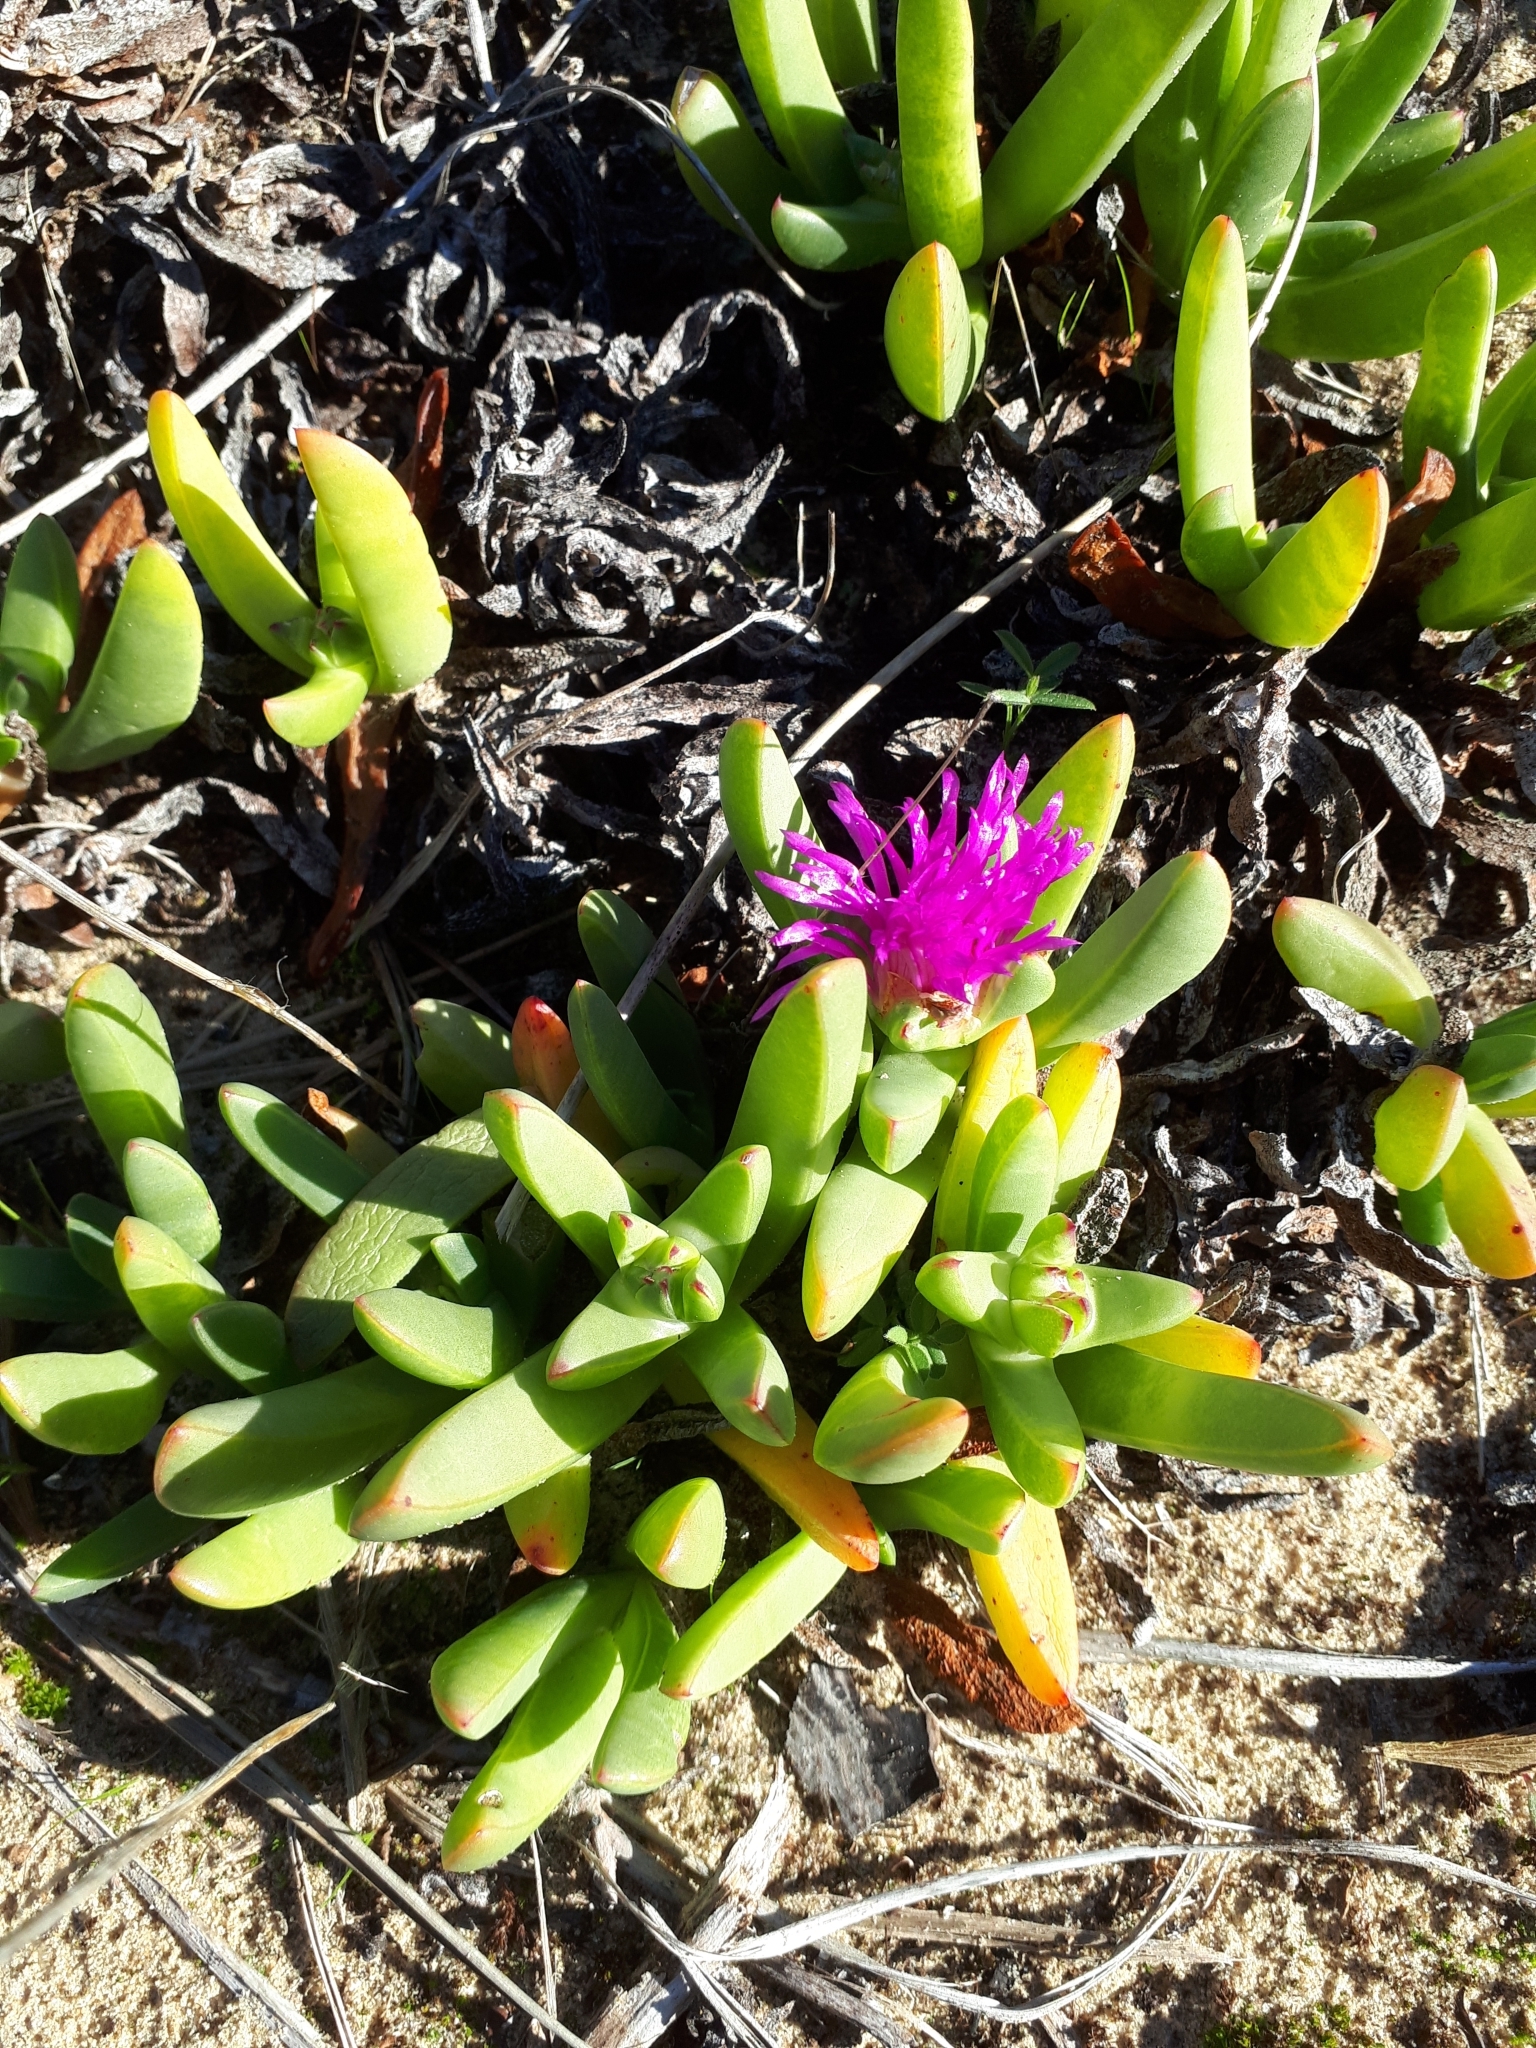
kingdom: Plantae
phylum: Tracheophyta
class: Magnoliopsida
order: Caryophyllales
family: Aizoaceae
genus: Carpobrotus
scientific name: Carpobrotus rossii
